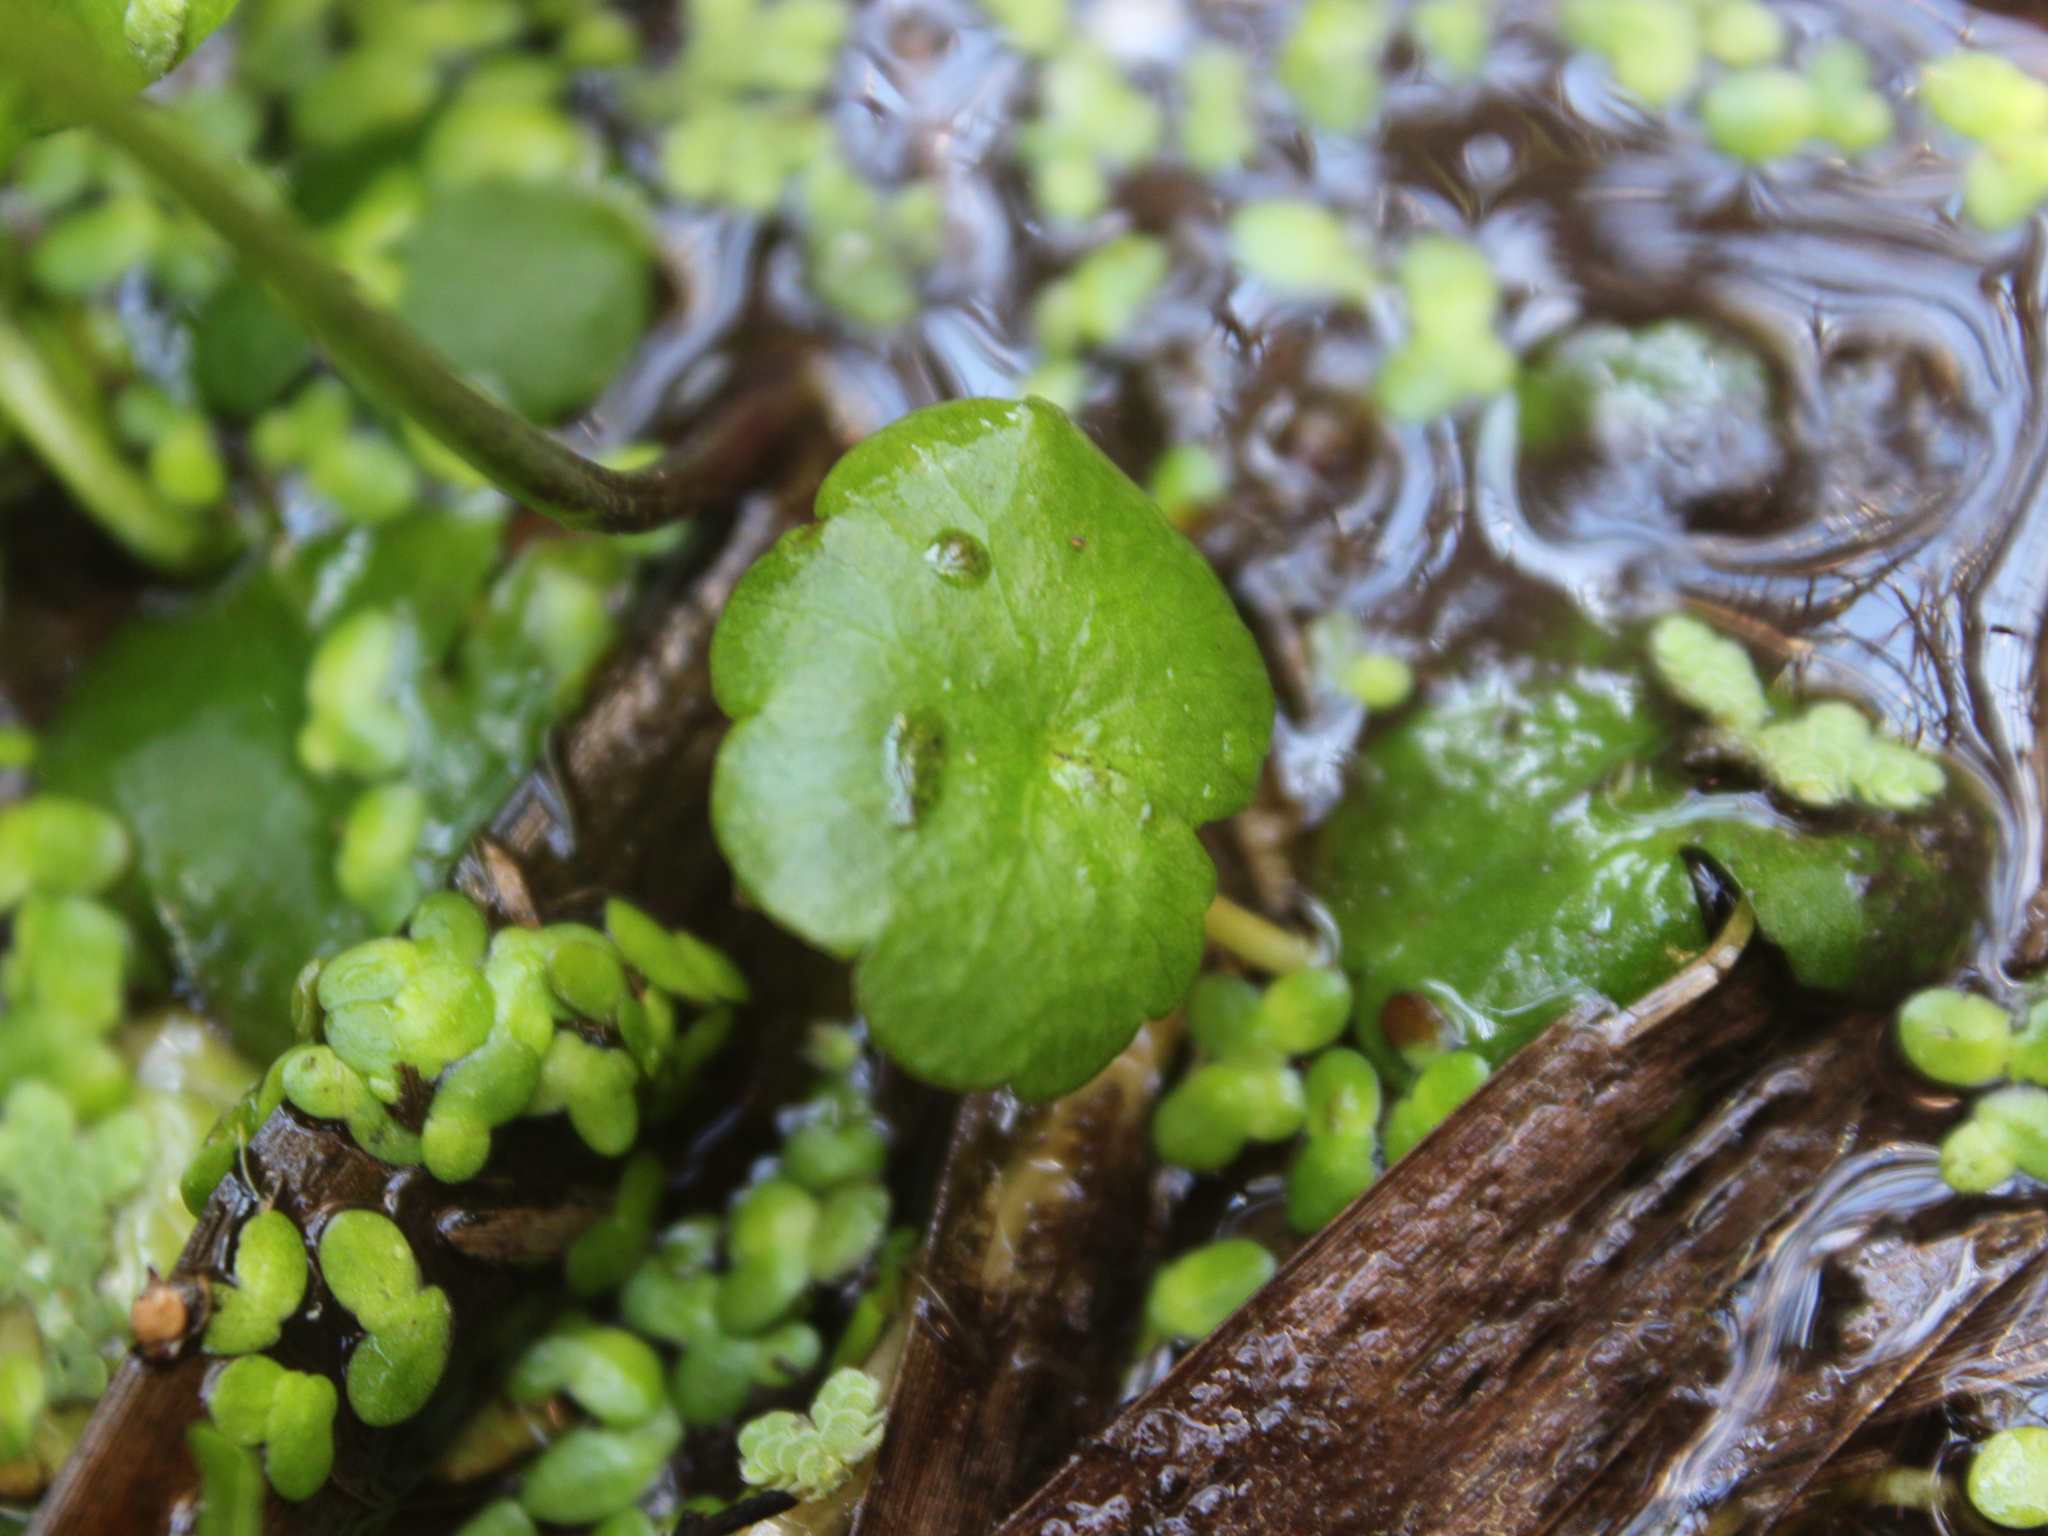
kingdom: Plantae
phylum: Tracheophyta
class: Magnoliopsida
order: Apiales
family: Araliaceae
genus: Hydrocotyle
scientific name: Hydrocotyle novae-zeelandiae
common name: New zealand pennywort
